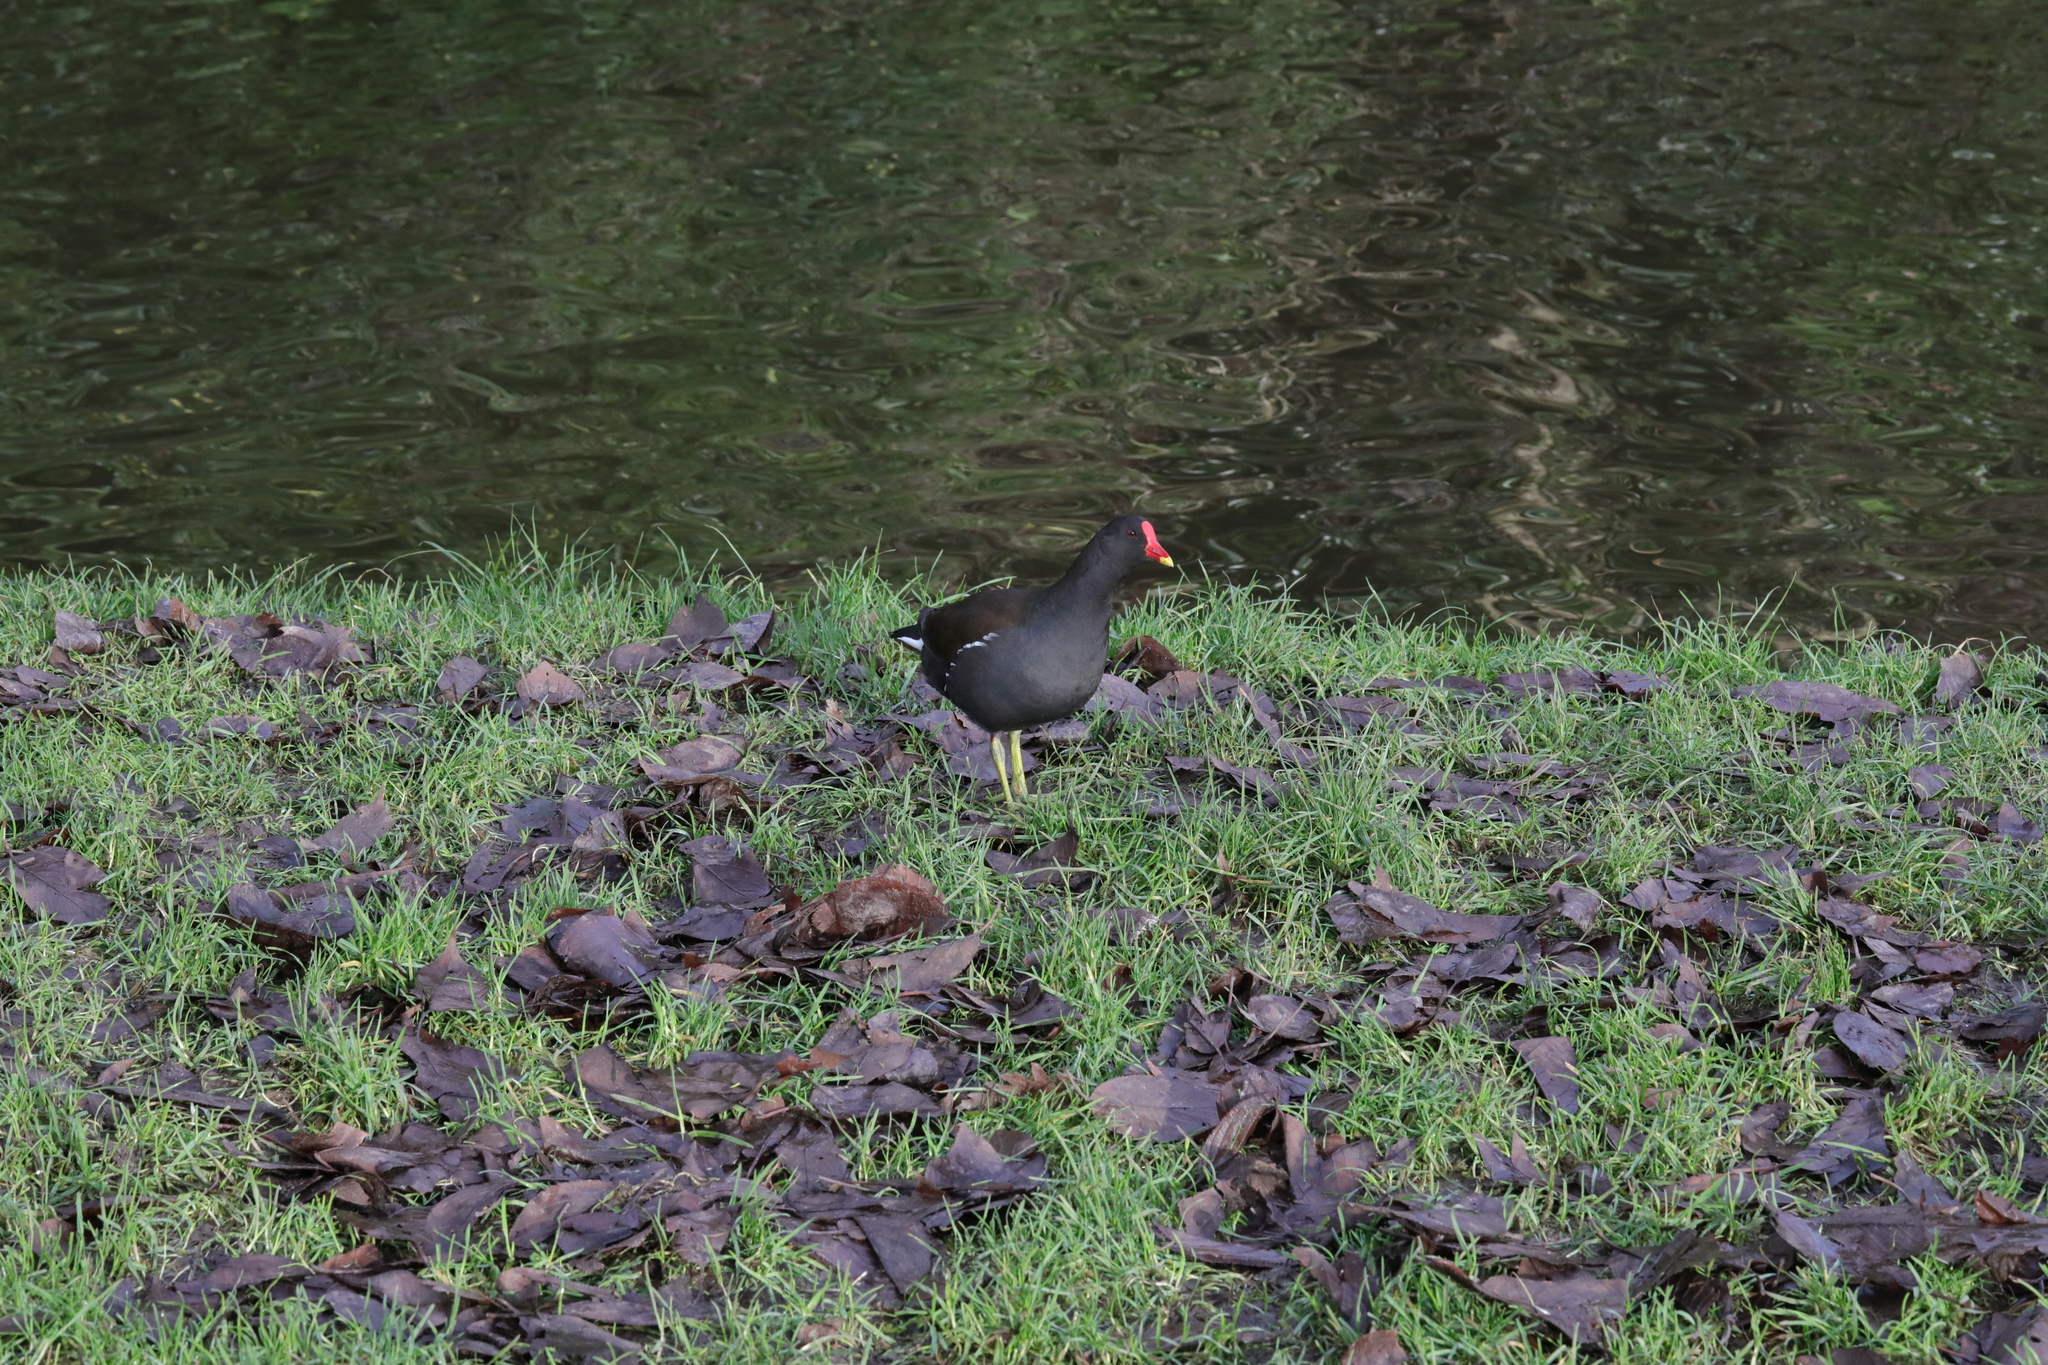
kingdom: Animalia
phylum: Chordata
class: Aves
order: Gruiformes
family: Rallidae
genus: Gallinula
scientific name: Gallinula chloropus
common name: Common moorhen
